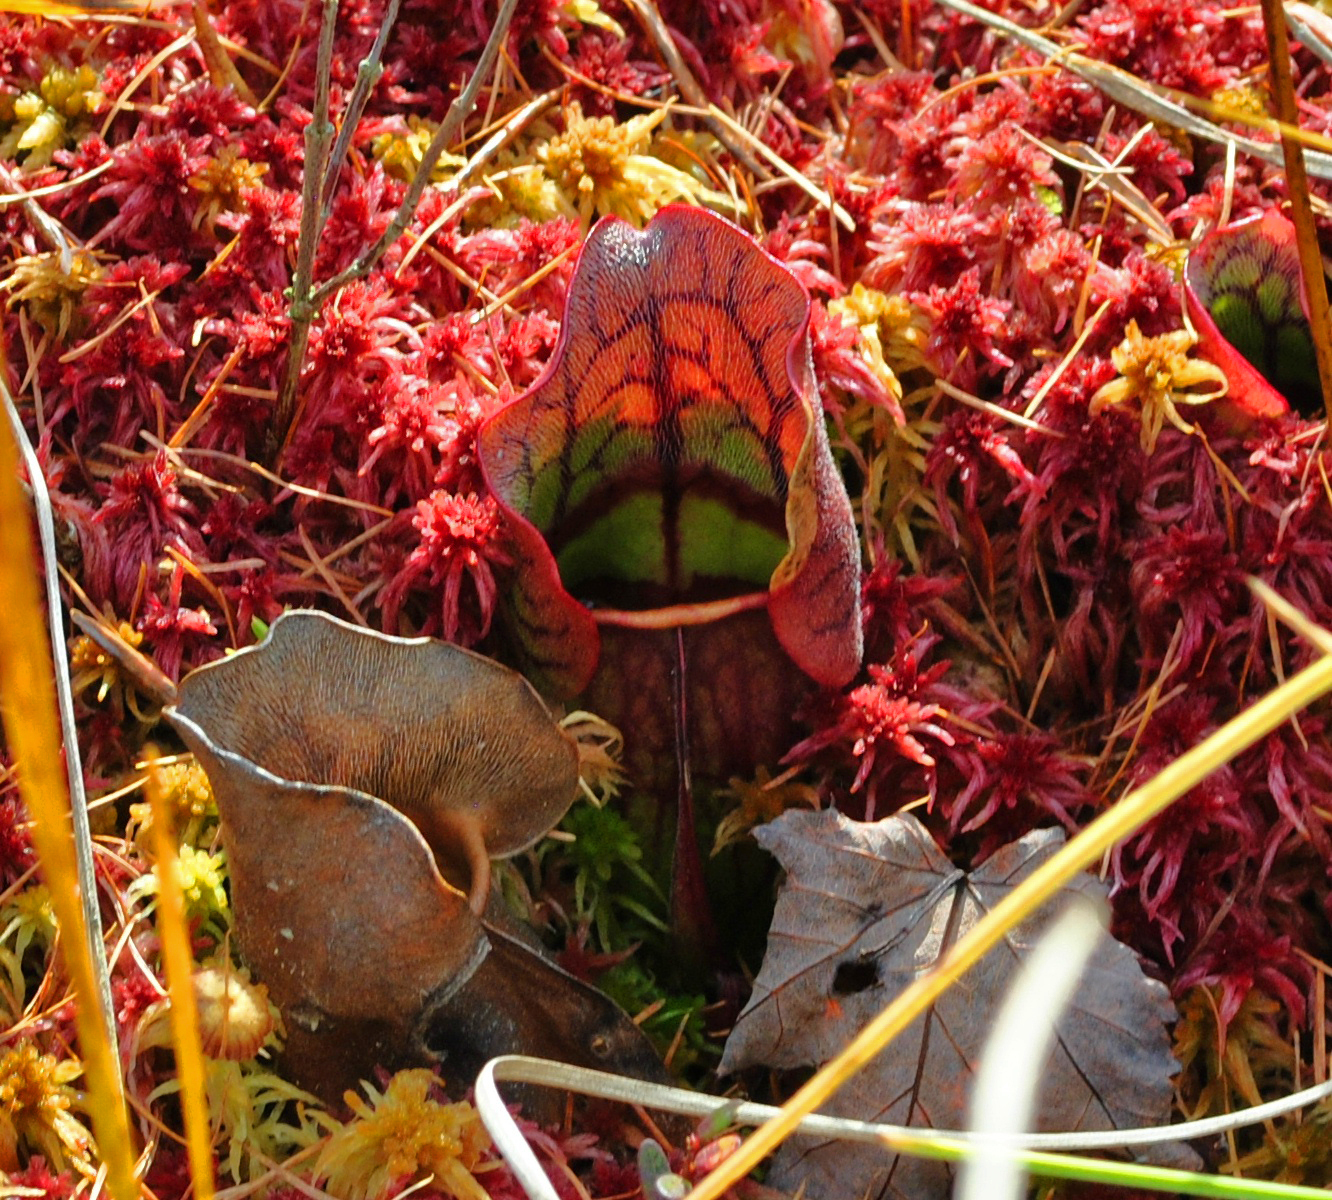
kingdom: Plantae
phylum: Tracheophyta
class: Magnoliopsida
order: Ericales
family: Sarraceniaceae
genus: Sarracenia
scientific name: Sarracenia purpurea
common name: Pitcherplant
